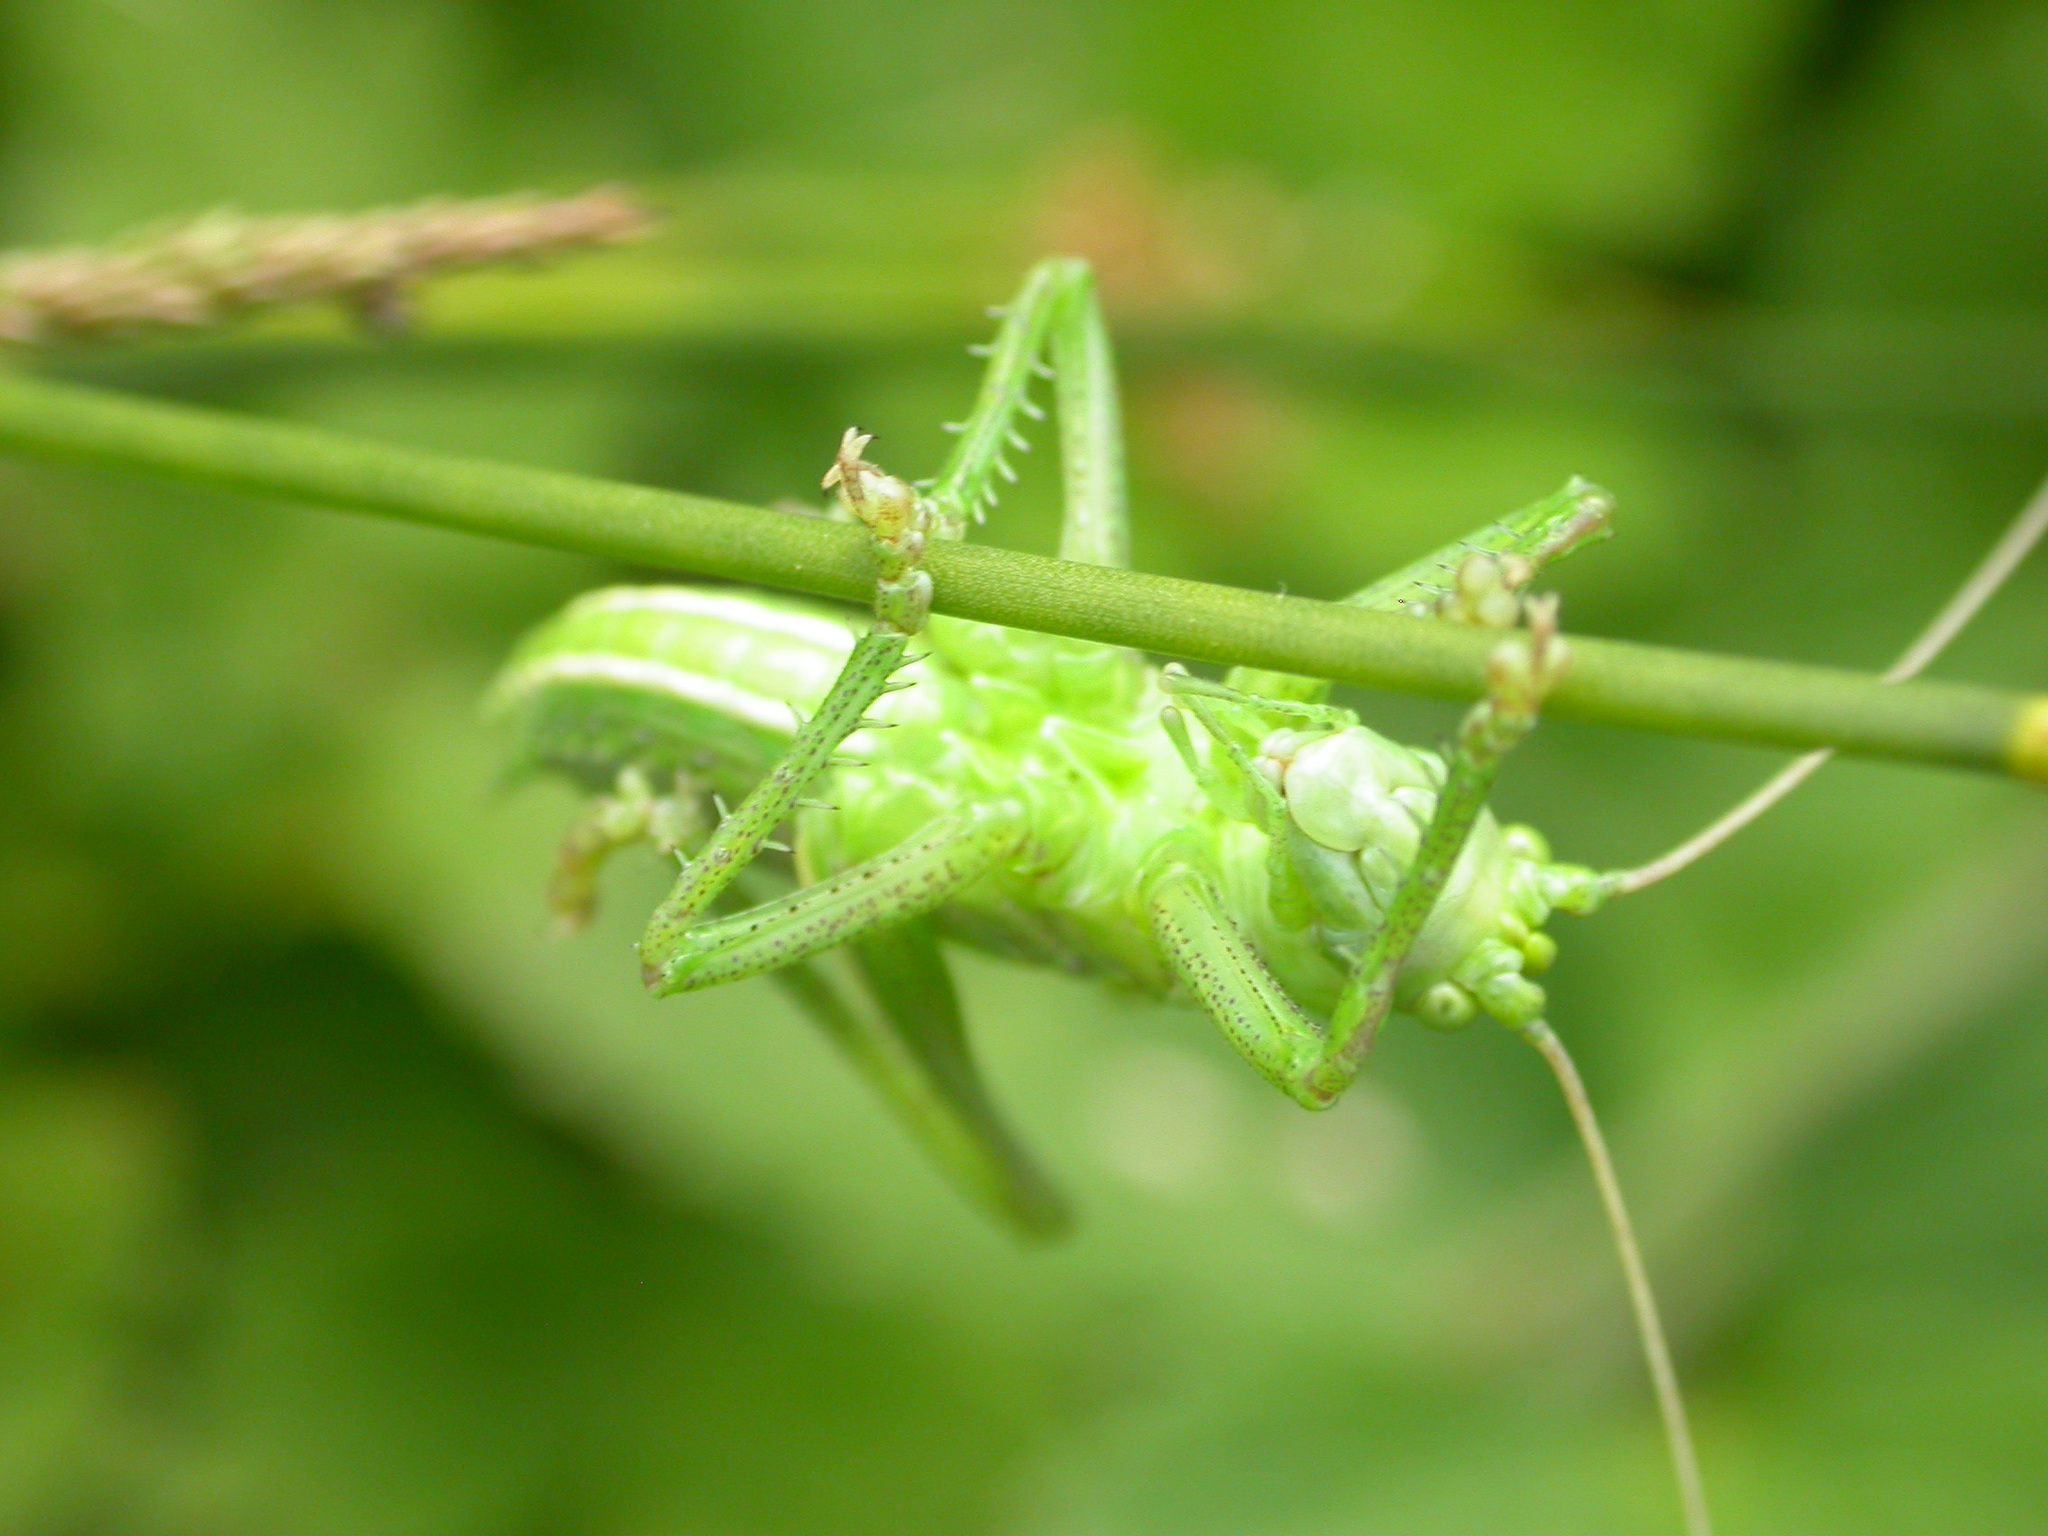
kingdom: Animalia
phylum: Arthropoda
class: Insecta
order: Orthoptera
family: Tettigoniidae
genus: Tettigonia
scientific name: Tettigonia viridissima
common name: Great green bush-cricket
